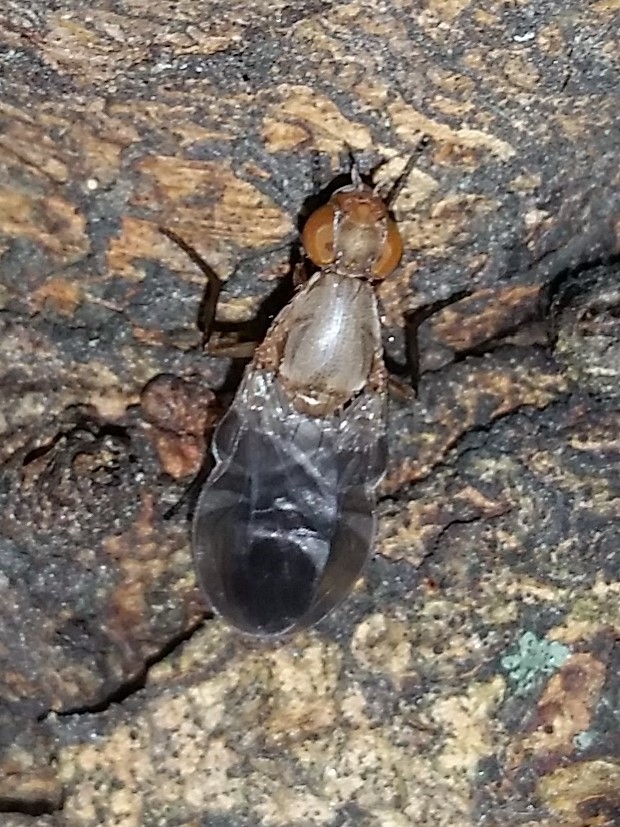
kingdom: Animalia
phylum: Arthropoda
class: Insecta
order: Diptera
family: Ulidiidae
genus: Delphinia
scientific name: Delphinia picta
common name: Common picture-winged fly
